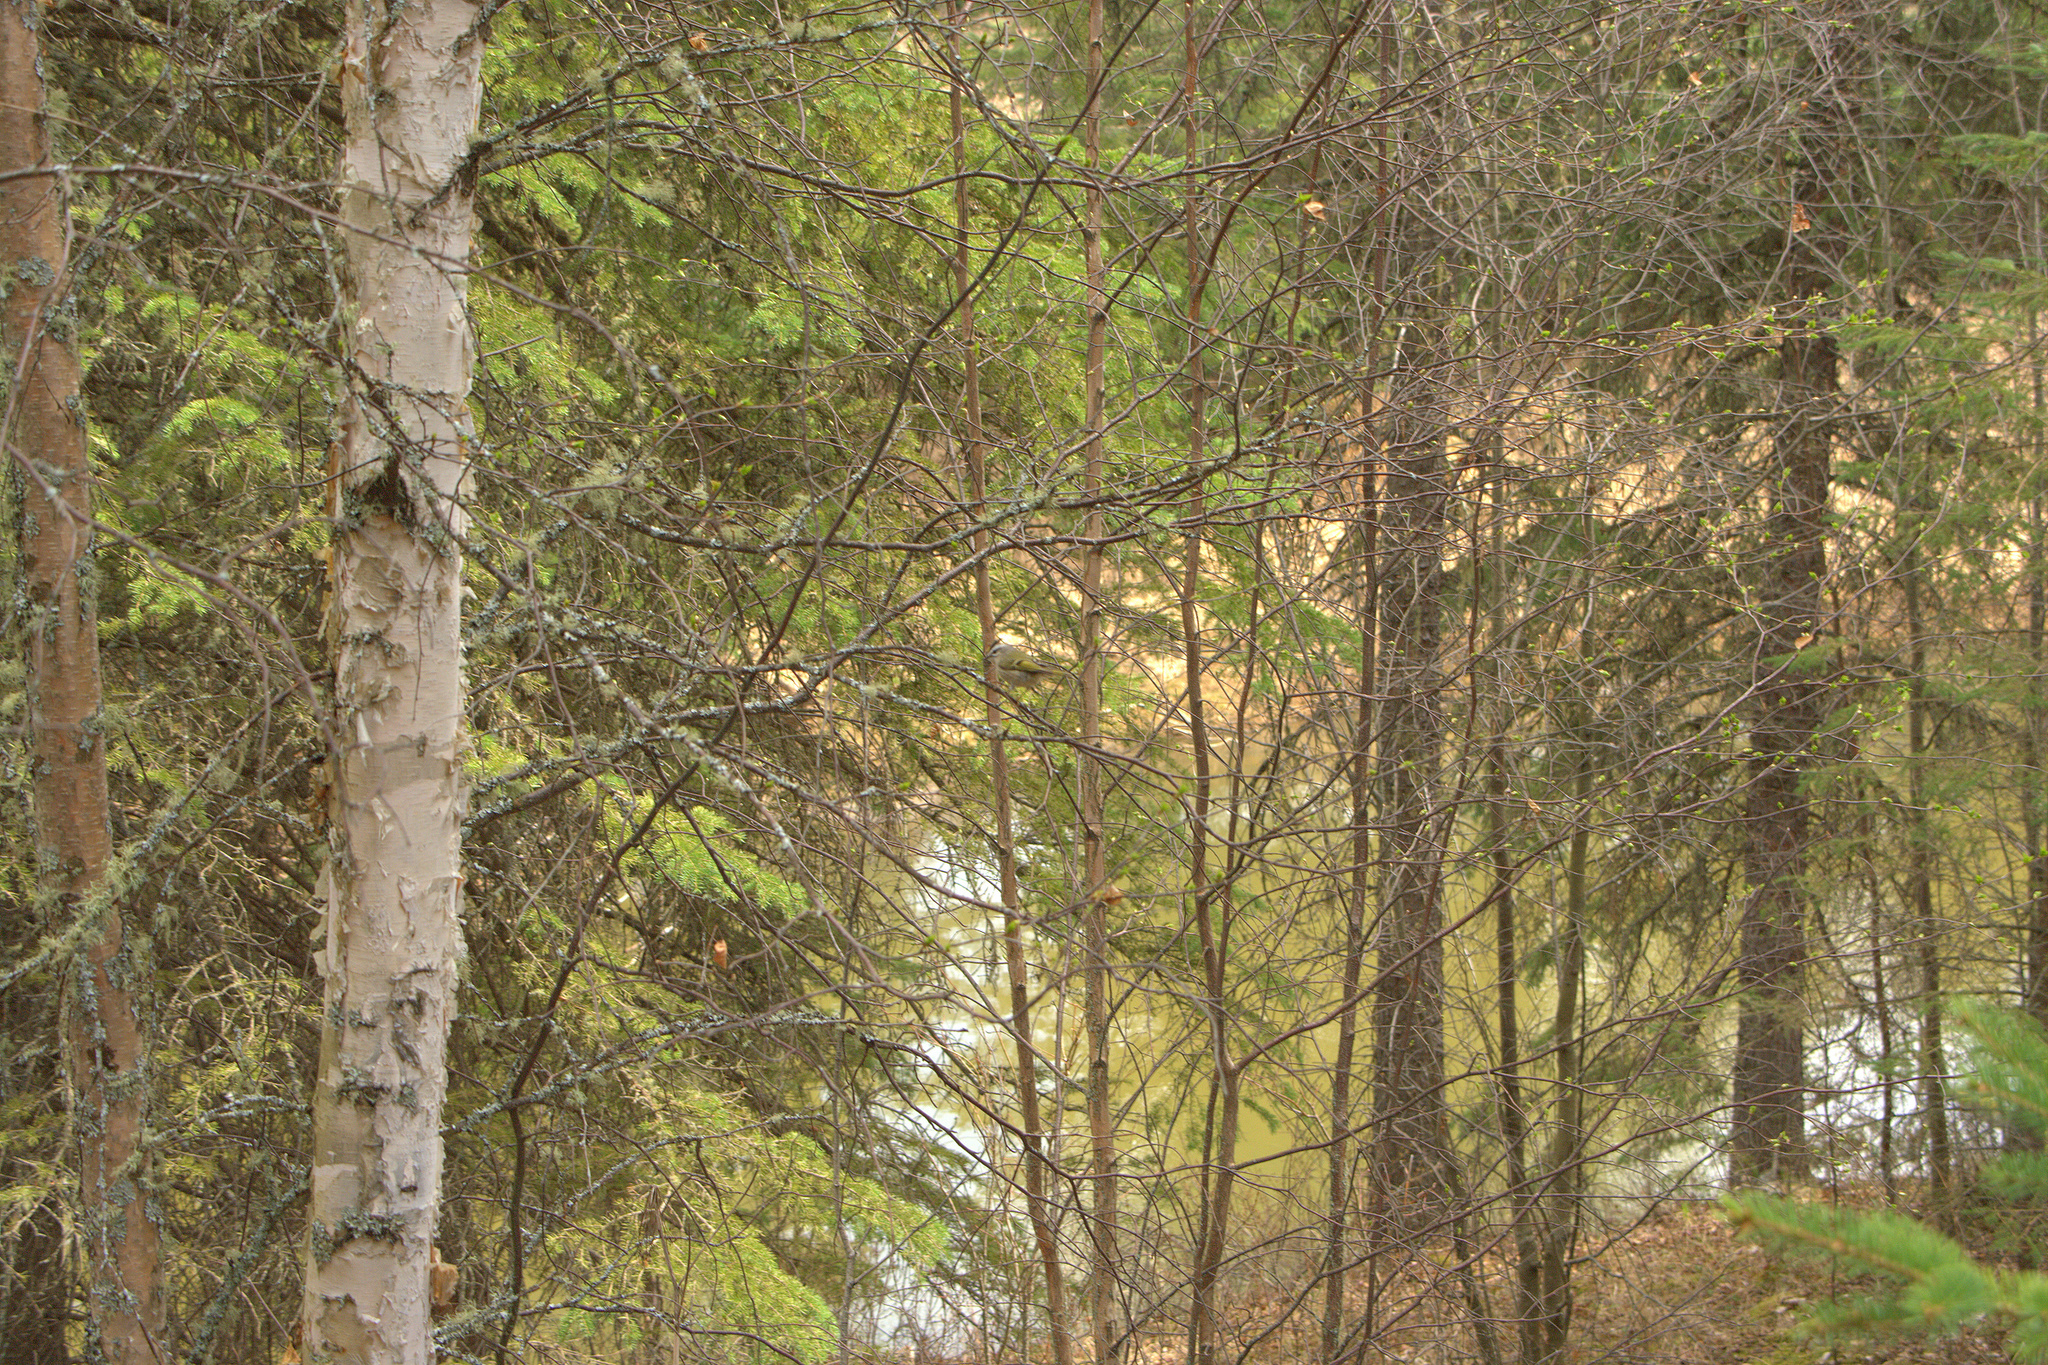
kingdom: Animalia
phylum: Chordata
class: Aves
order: Passeriformes
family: Regulidae
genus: Regulus
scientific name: Regulus satrapa
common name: Golden-crowned kinglet
